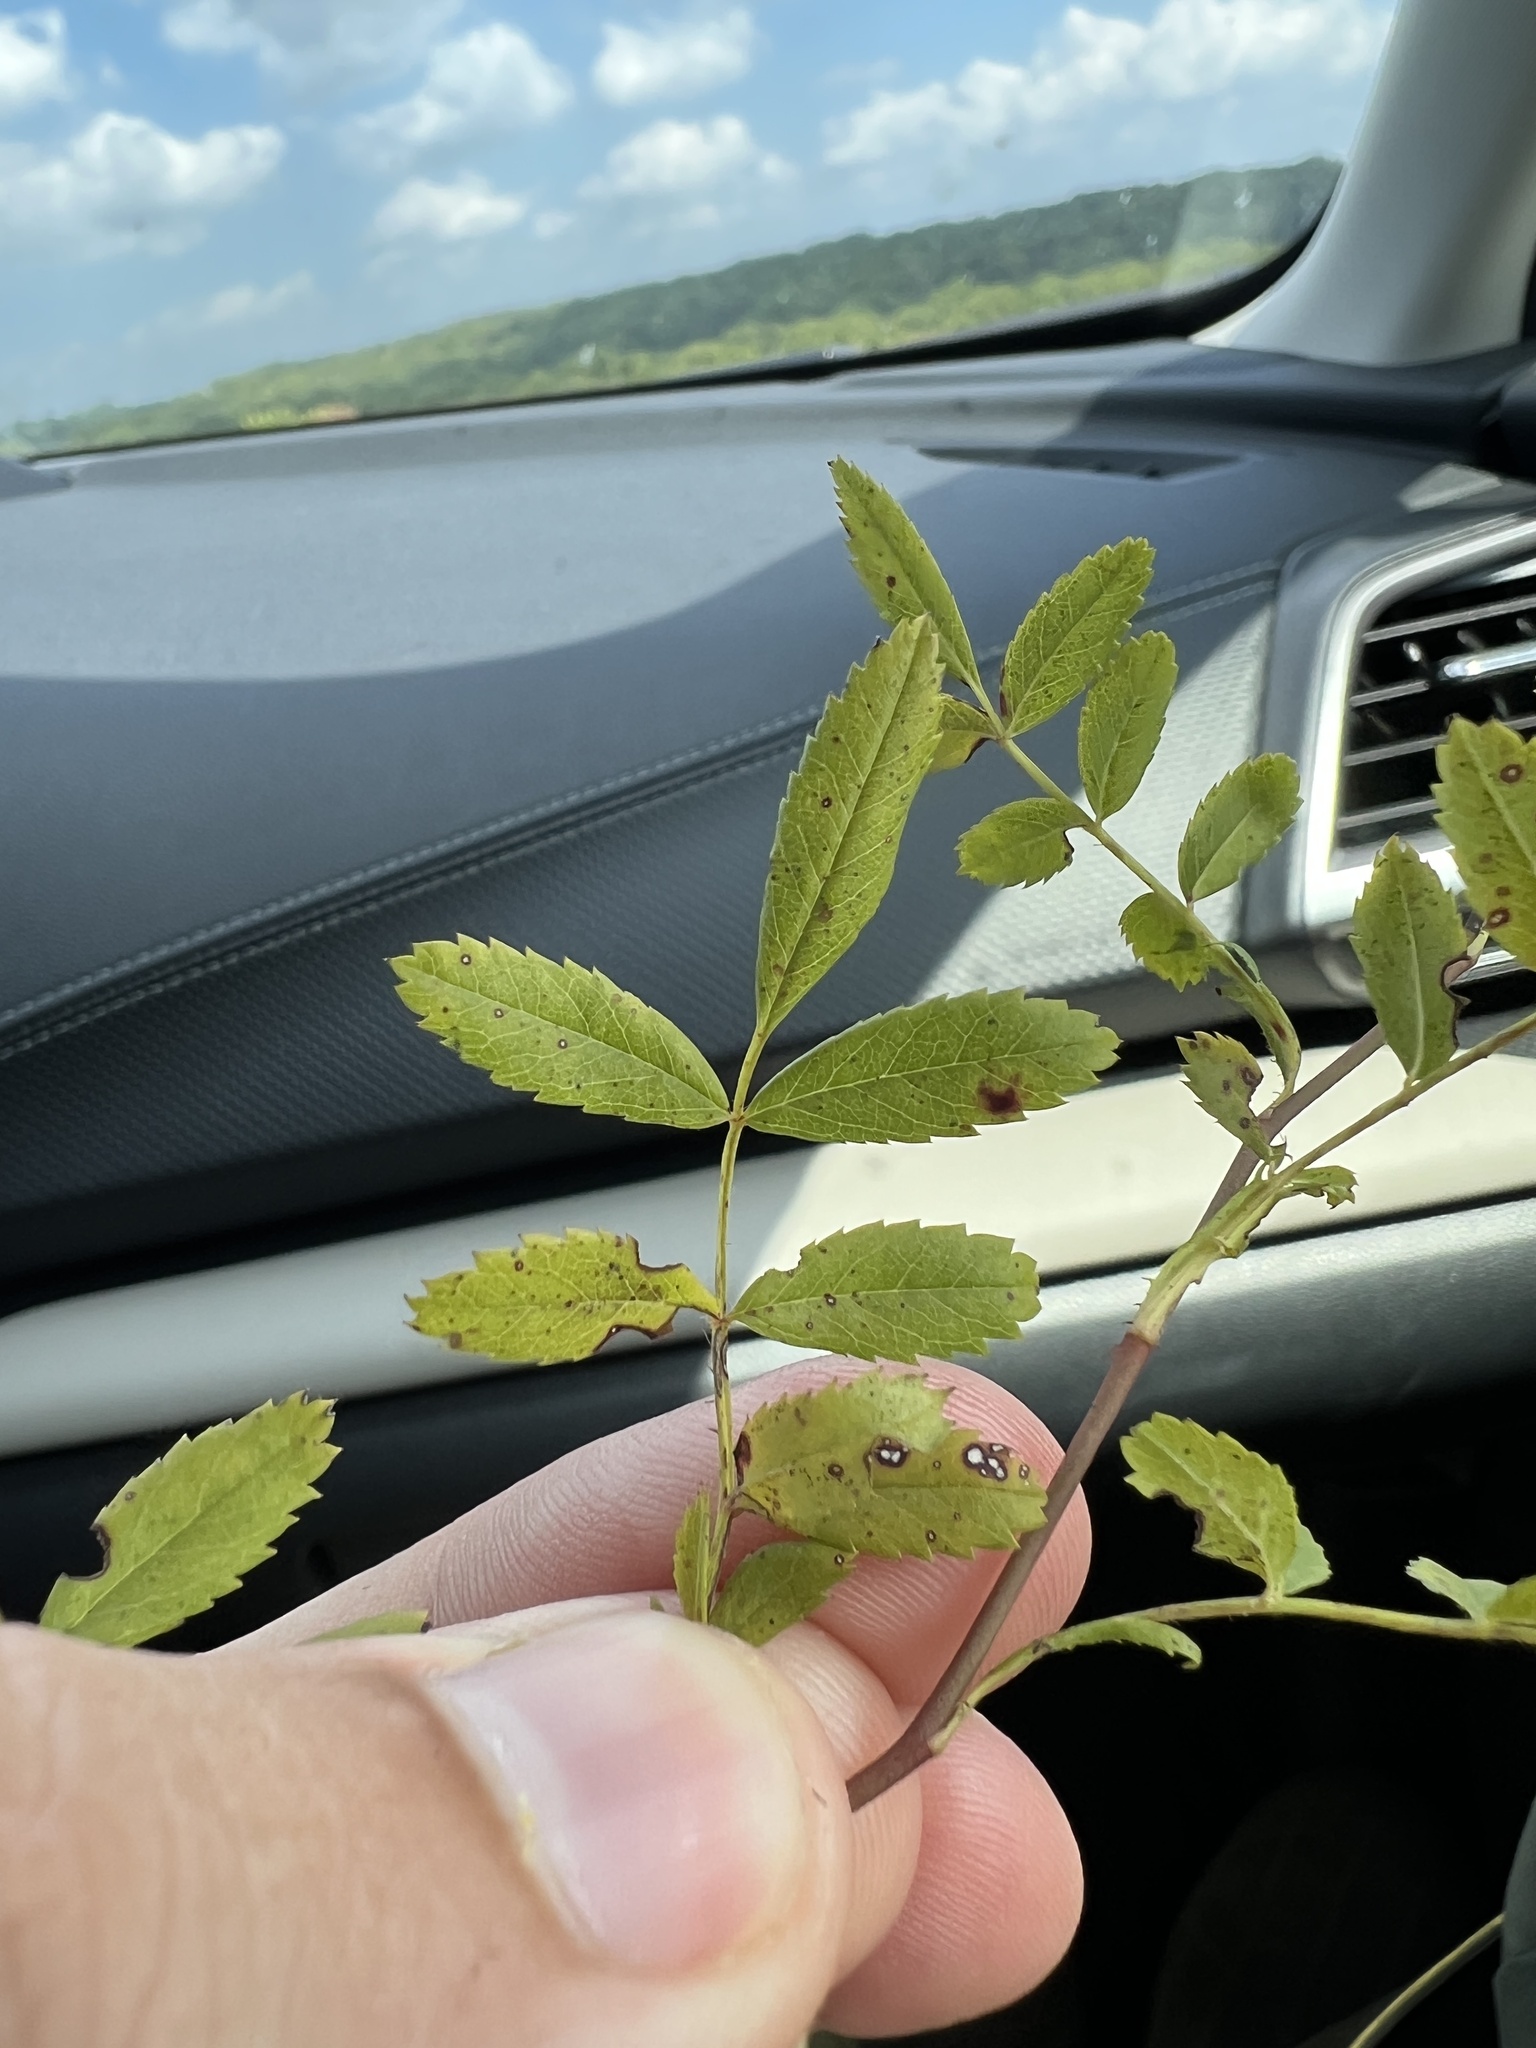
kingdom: Plantae
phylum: Tracheophyta
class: Magnoliopsida
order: Rosales
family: Rosaceae
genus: Rosa
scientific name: Rosa foliolosa
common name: White prairie rose
